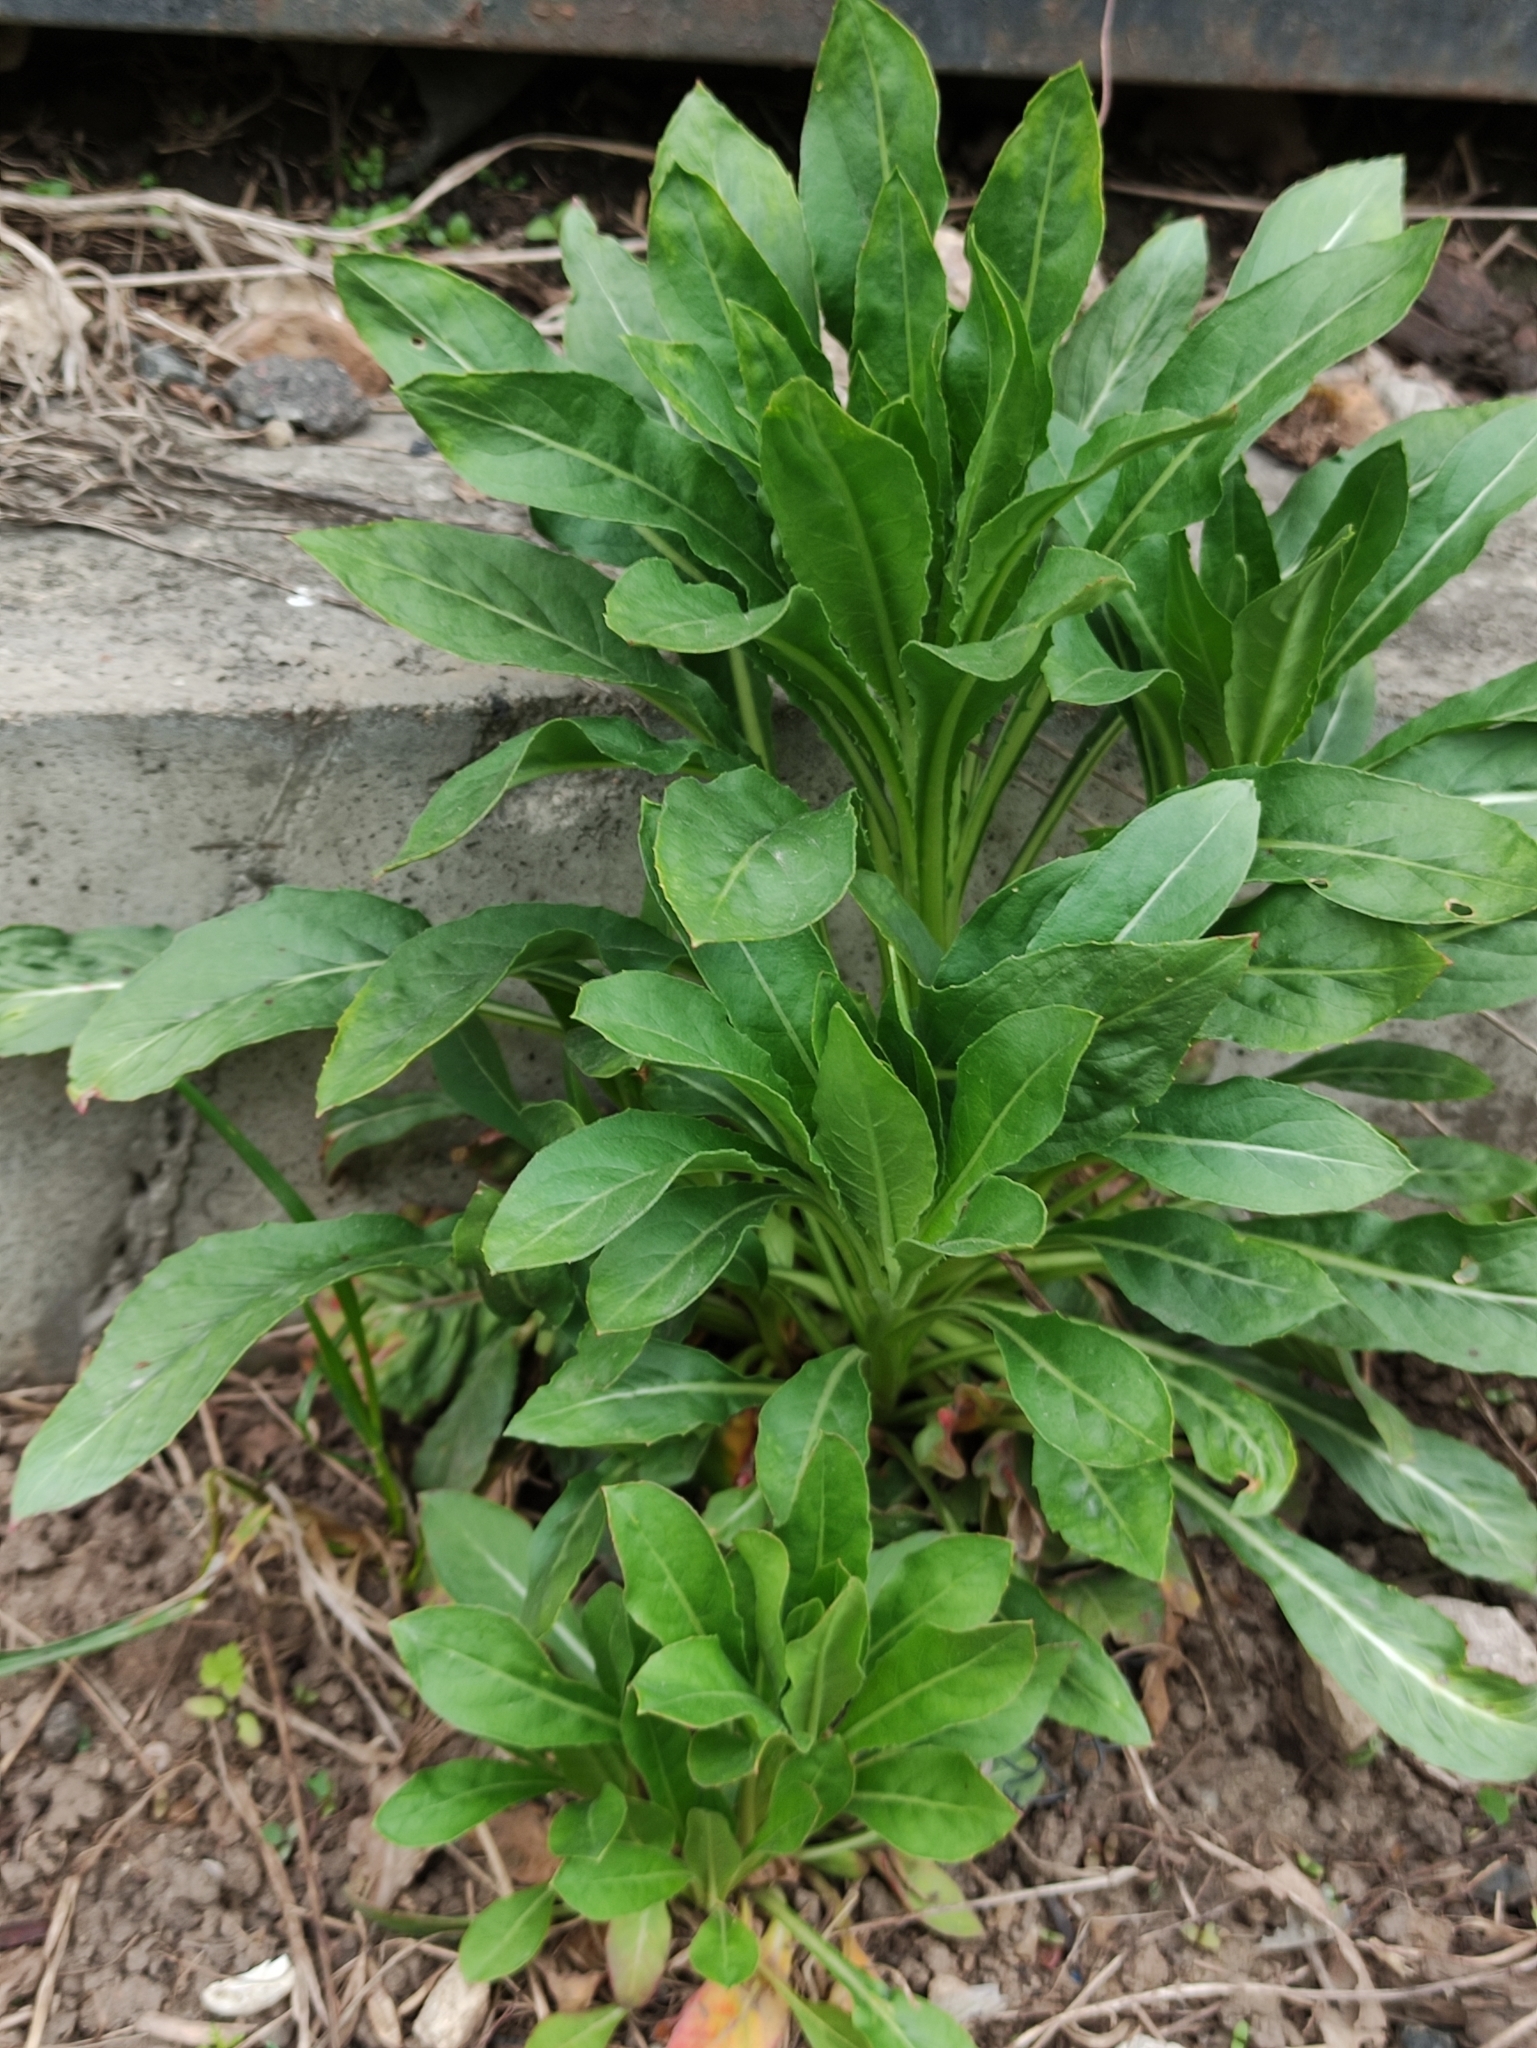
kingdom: Plantae
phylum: Tracheophyta
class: Magnoliopsida
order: Myrtales
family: Onagraceae
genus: Oenothera
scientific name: Oenothera rubricaulis
